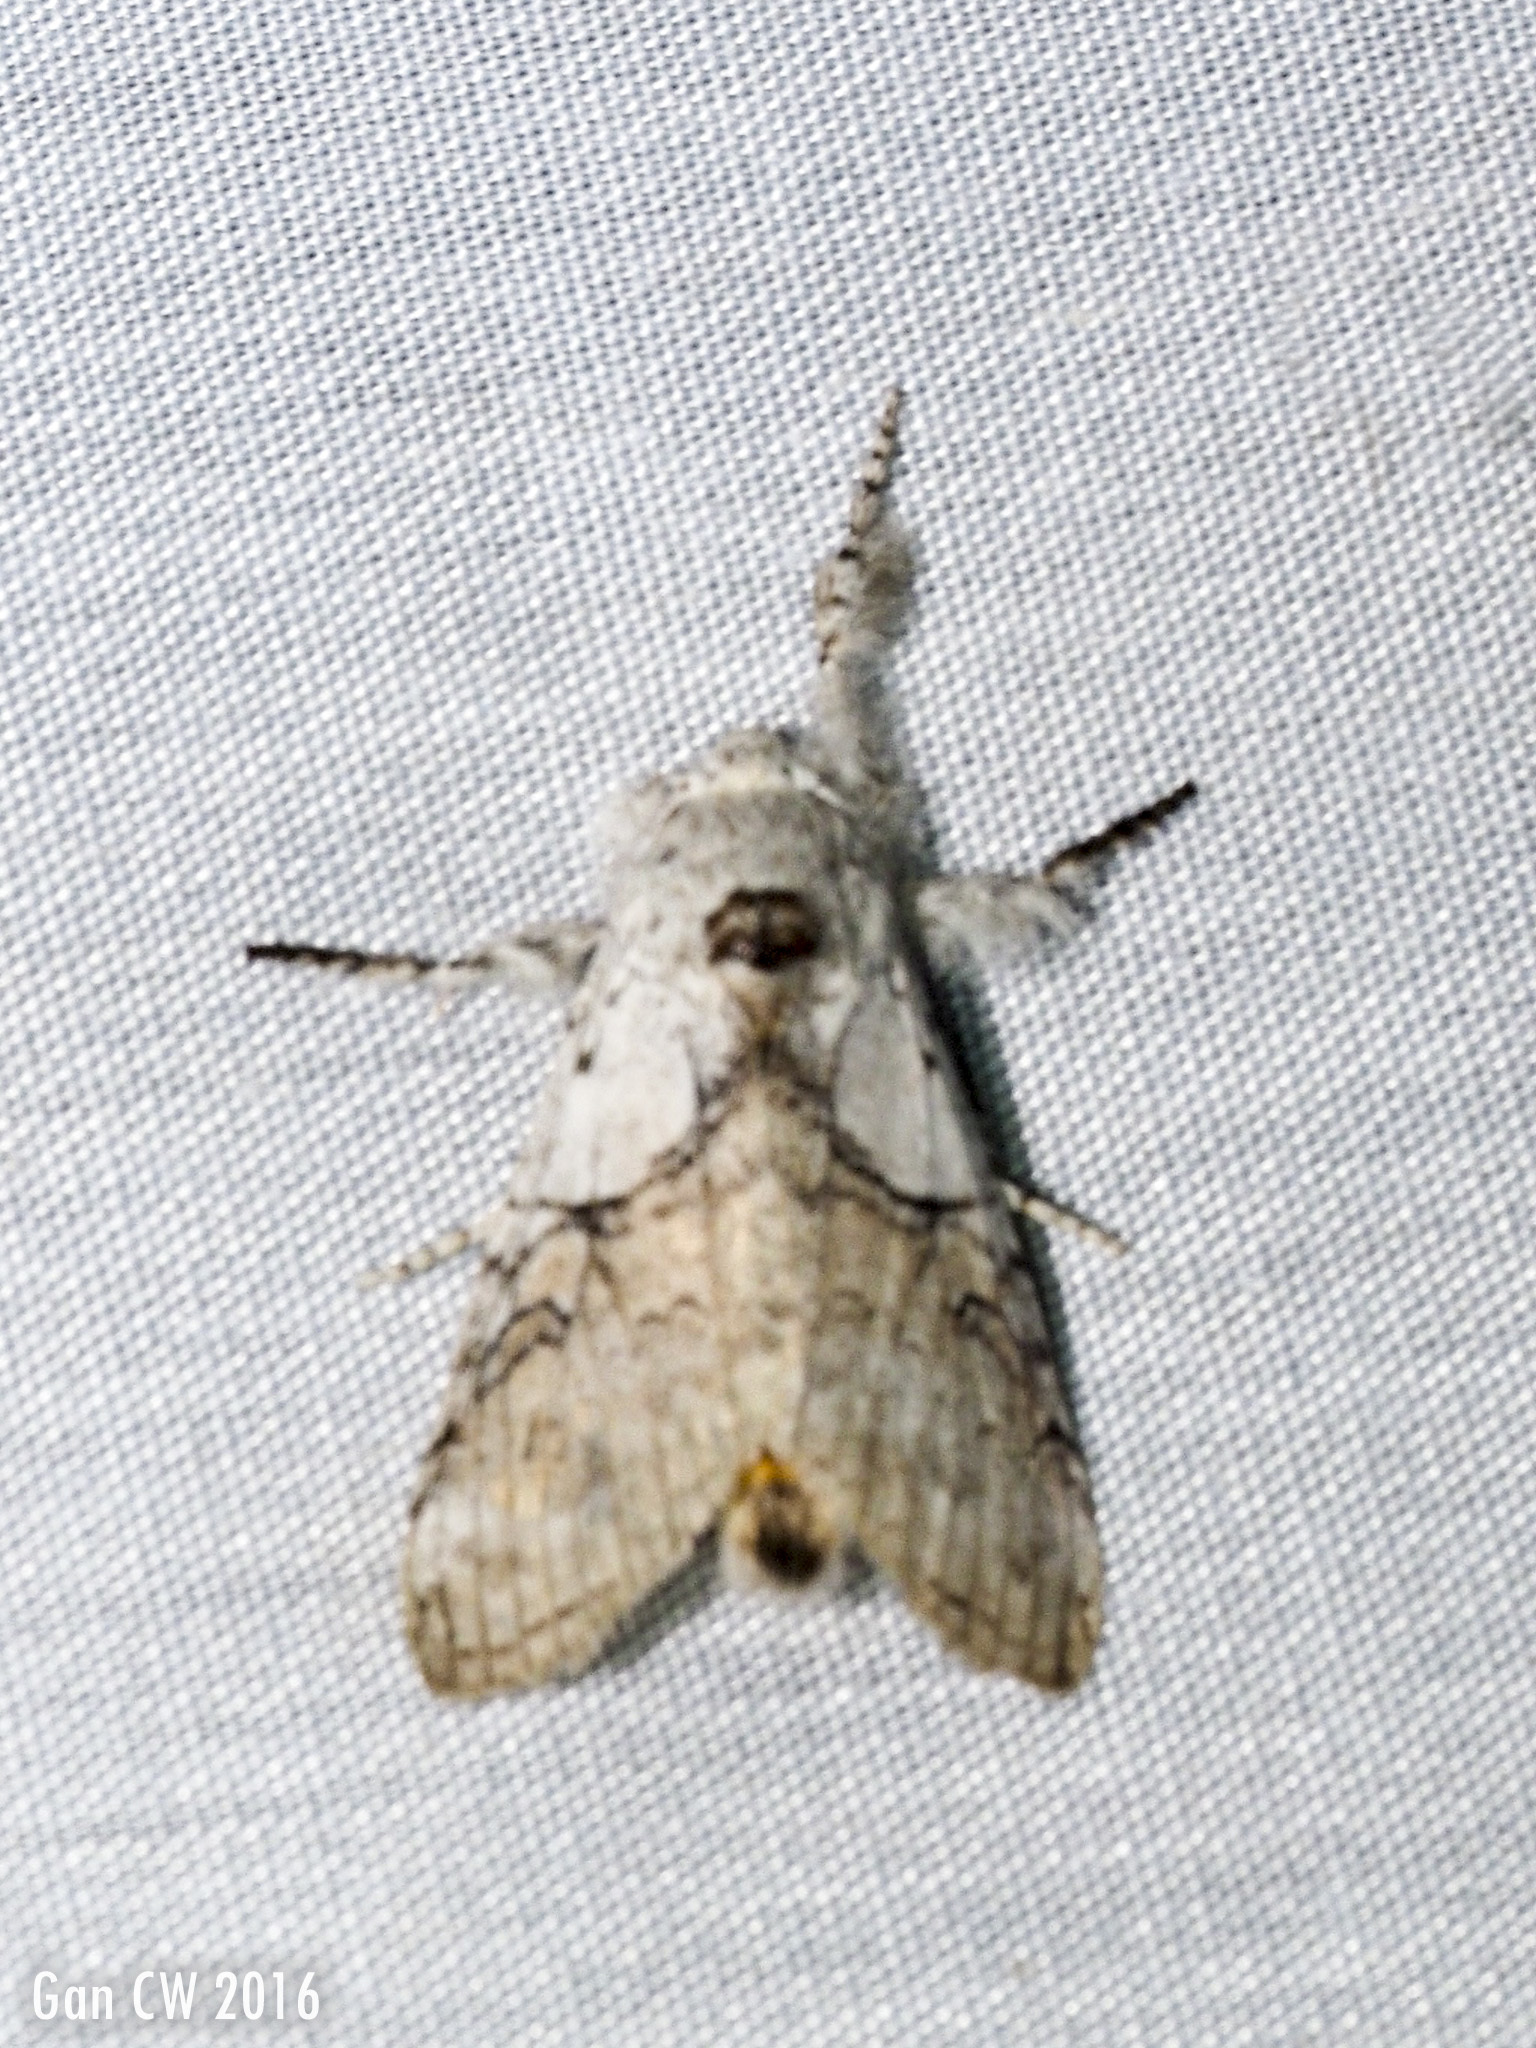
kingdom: Animalia
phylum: Arthropoda
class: Insecta
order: Lepidoptera
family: Erebidae
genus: Calliteara
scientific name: Calliteara horsfieldii
